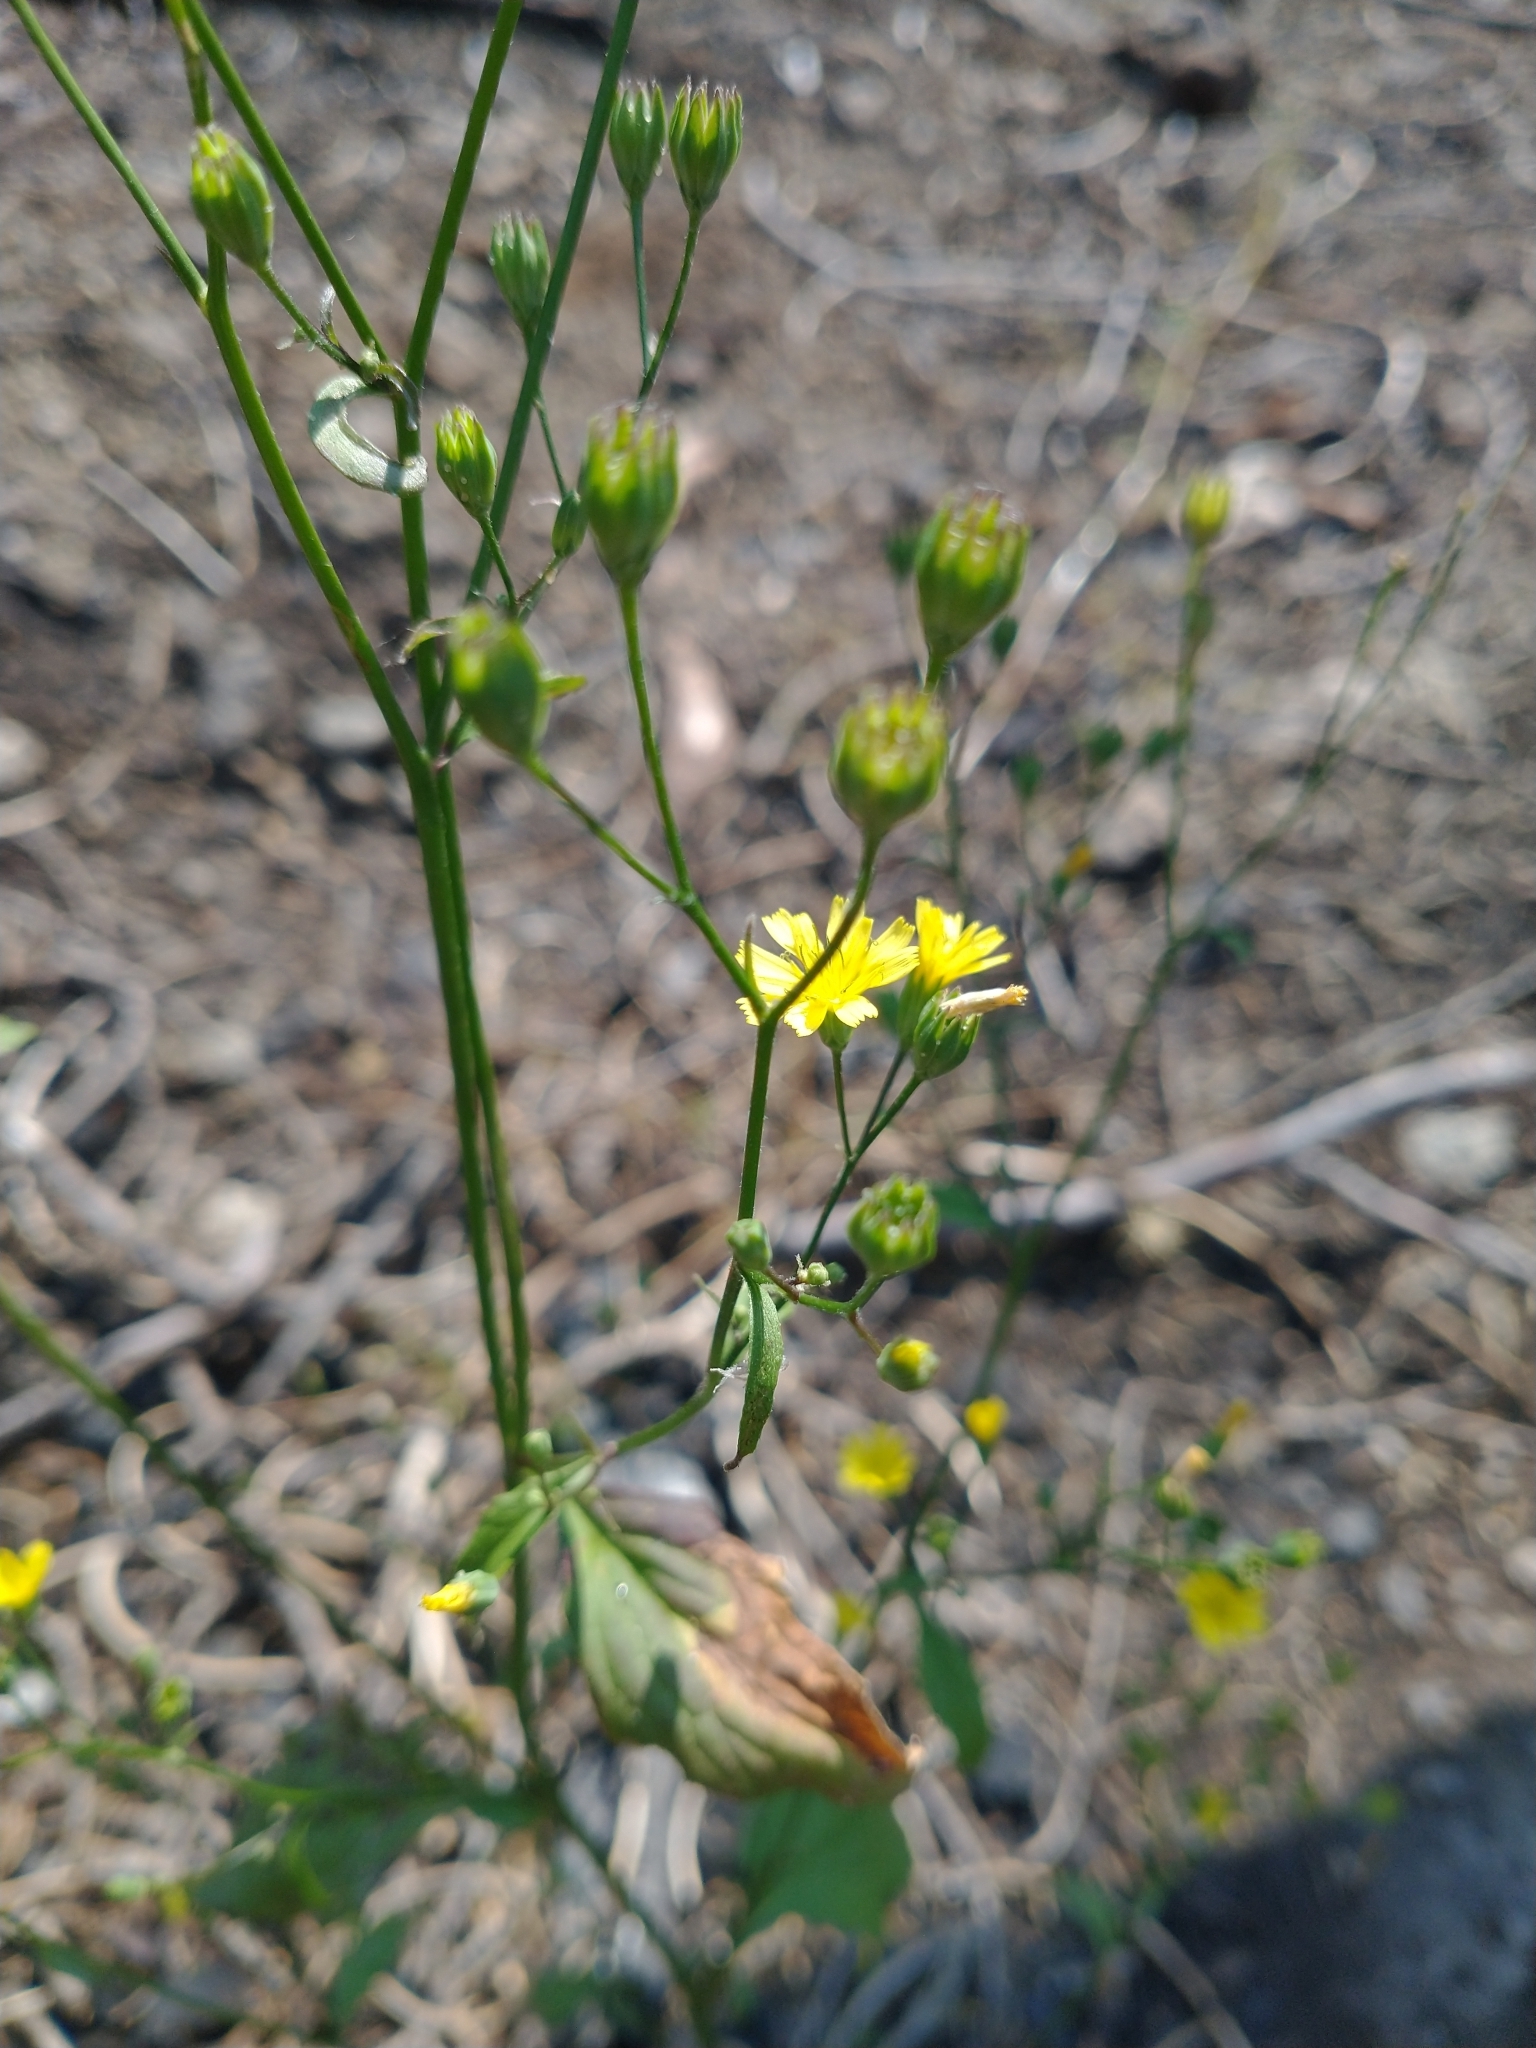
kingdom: Plantae
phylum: Tracheophyta
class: Magnoliopsida
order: Asterales
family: Asteraceae
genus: Lapsana
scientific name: Lapsana communis
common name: Nipplewort
